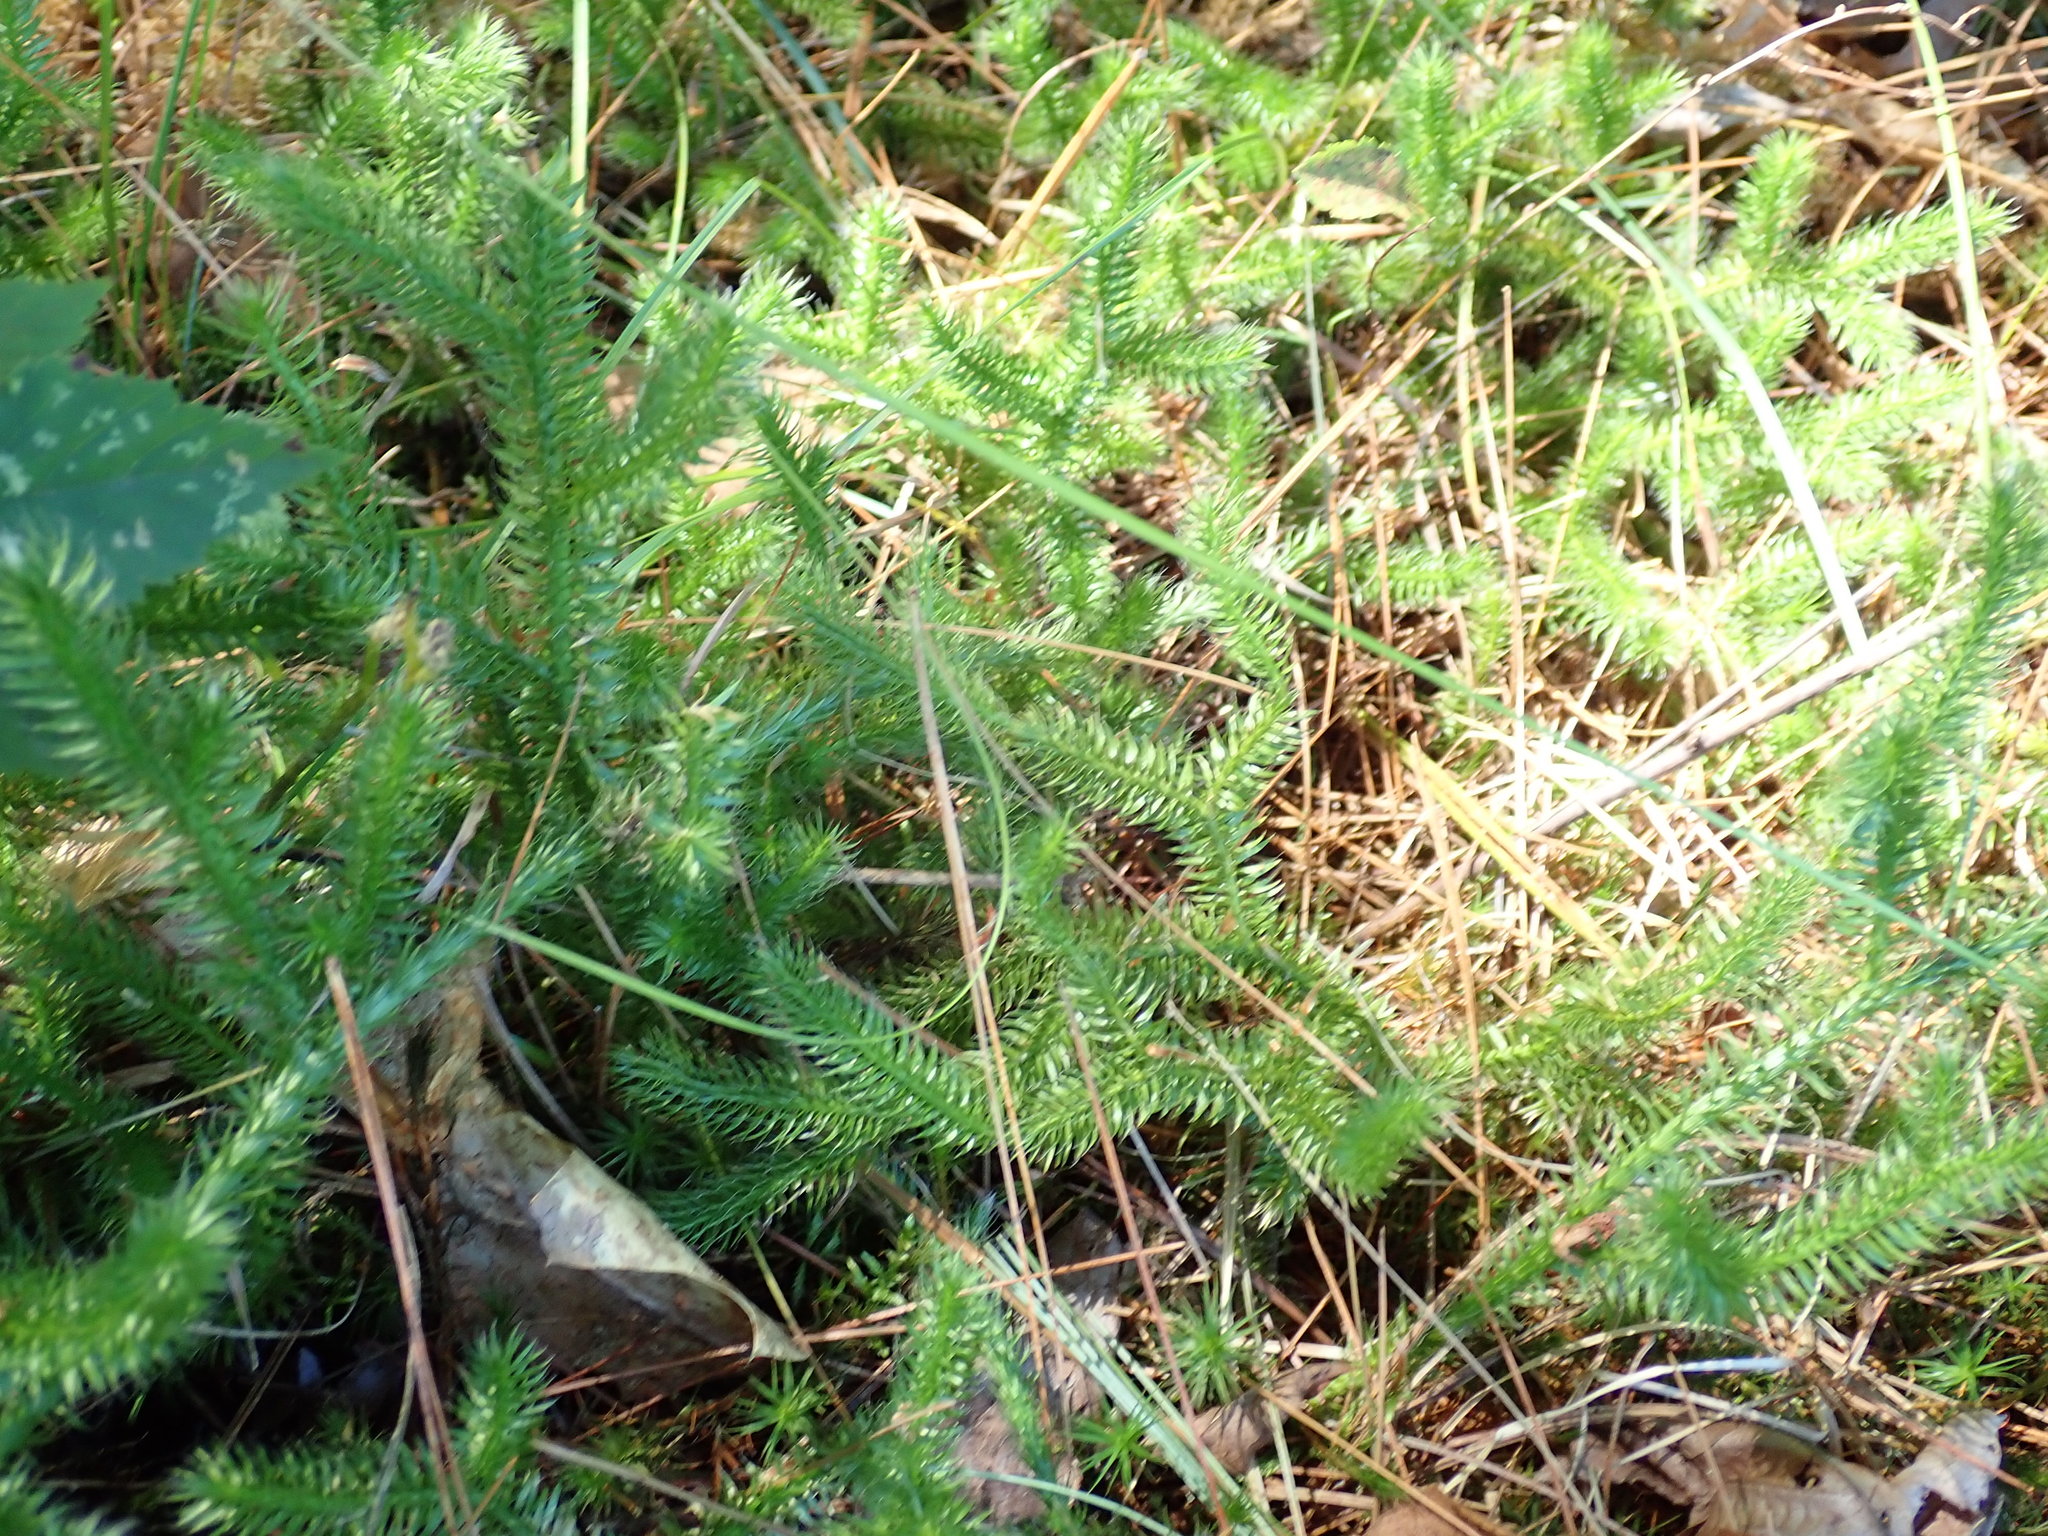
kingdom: Plantae
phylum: Tracheophyta
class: Lycopodiopsida
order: Lycopodiales
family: Lycopodiaceae
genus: Lycopodium
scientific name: Lycopodium clavatum
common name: Stag's-horn clubmoss
